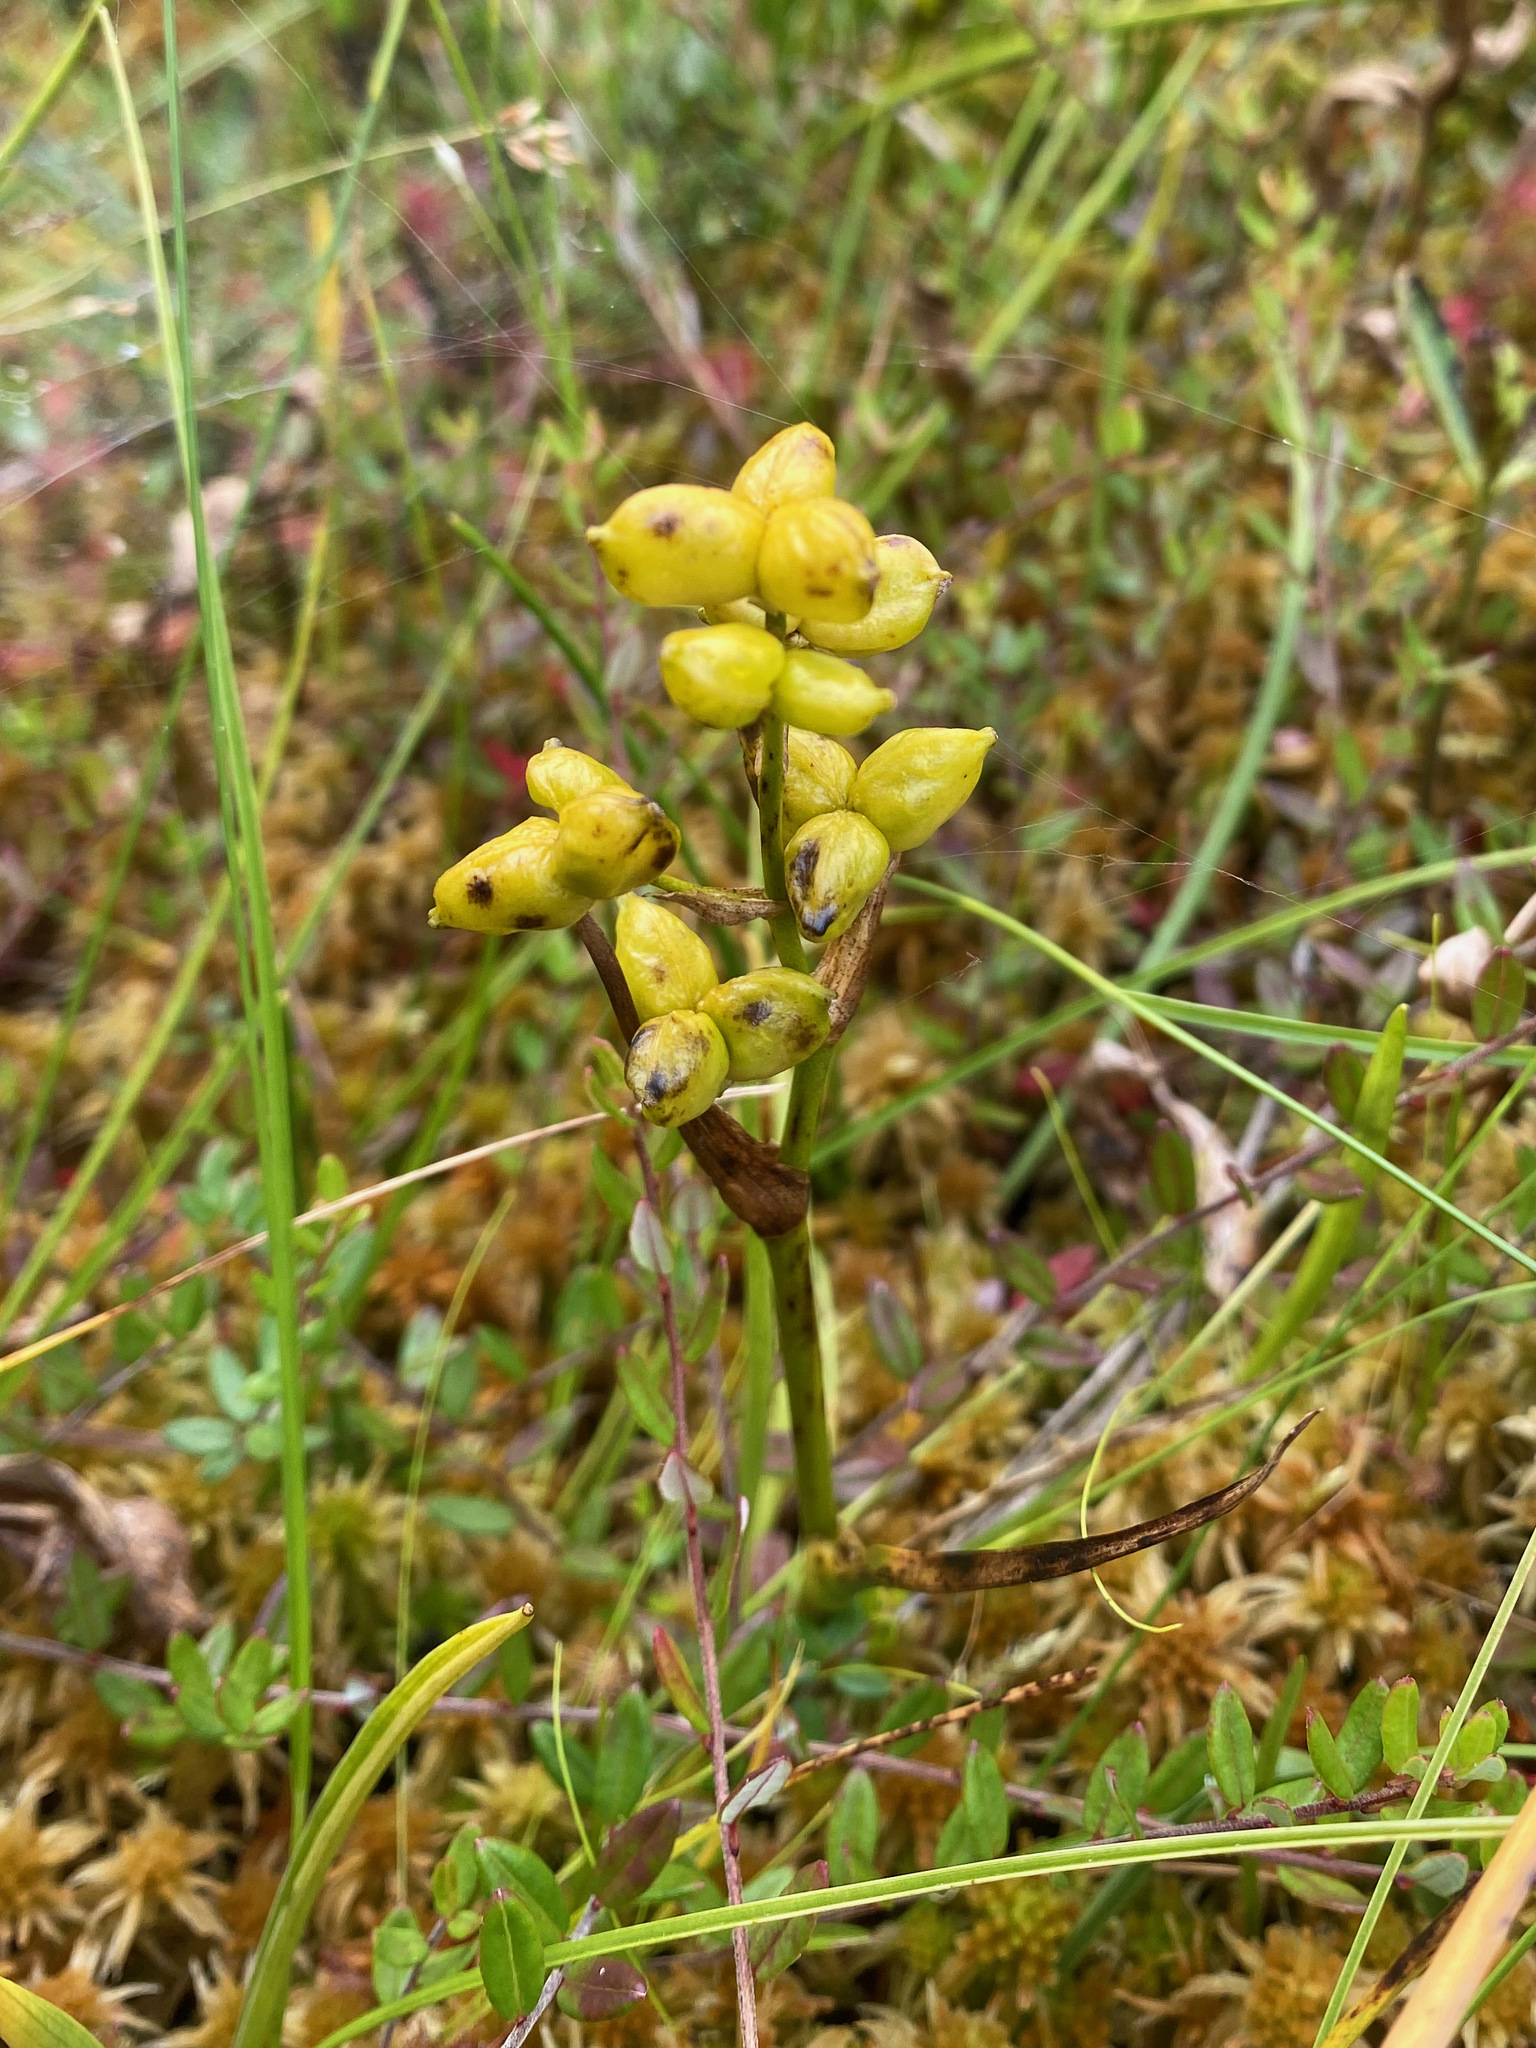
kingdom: Plantae
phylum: Tracheophyta
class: Liliopsida
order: Alismatales
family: Scheuchzeriaceae
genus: Scheuchzeria
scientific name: Scheuchzeria palustris
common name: Rannoch-rush
